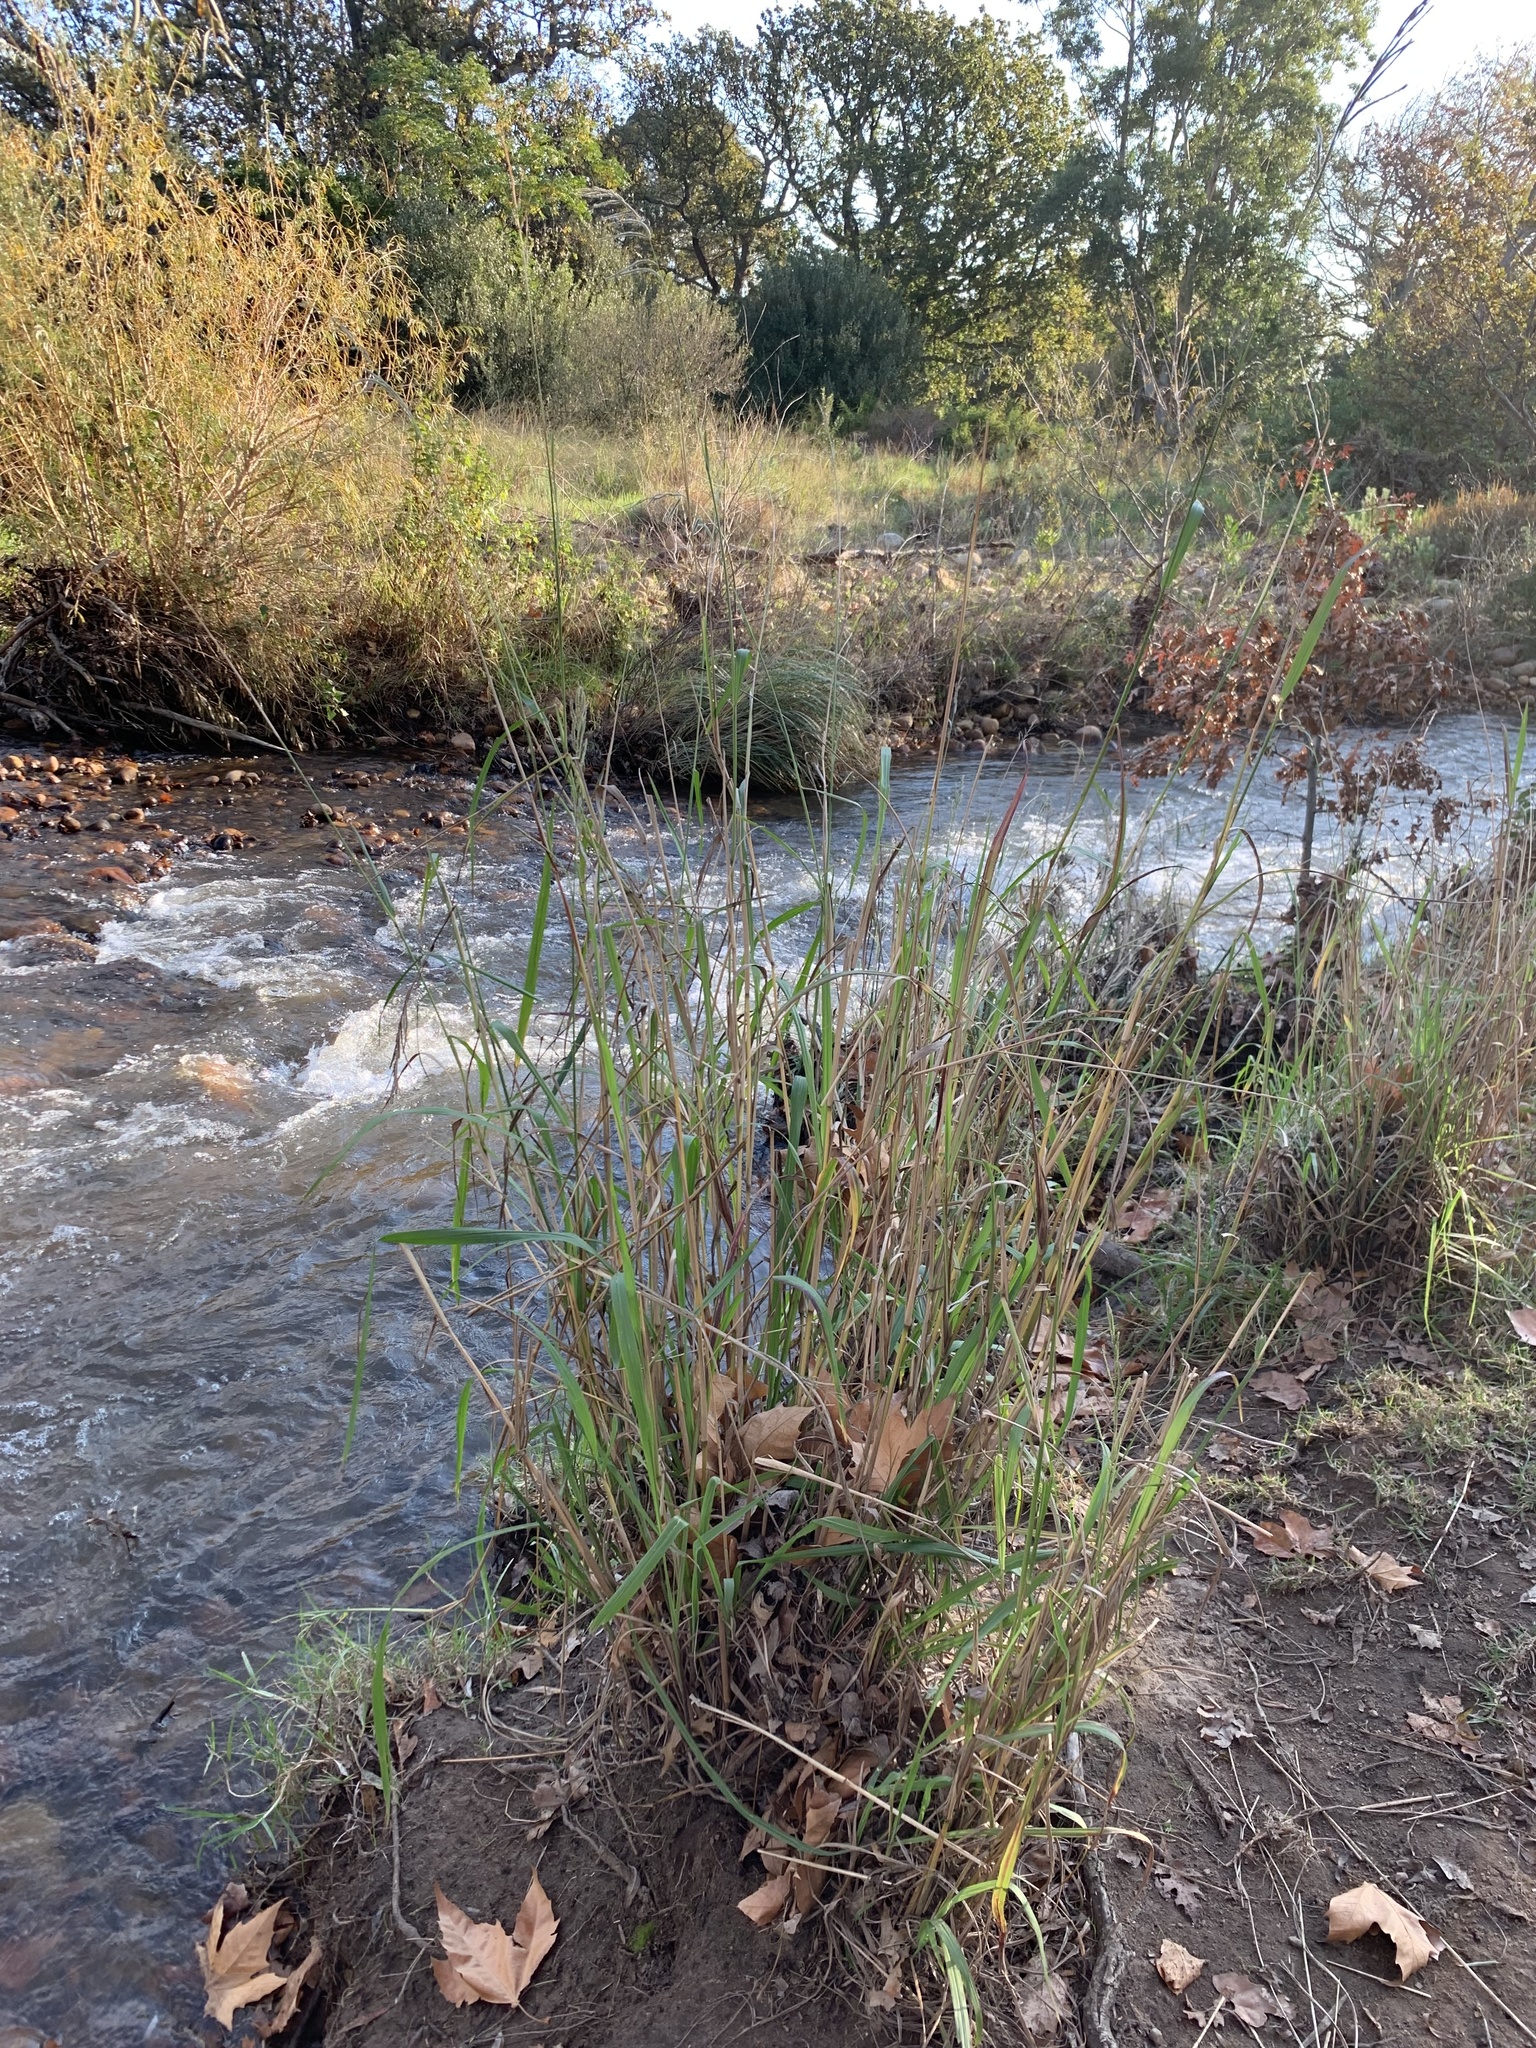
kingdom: Plantae
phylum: Tracheophyta
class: Liliopsida
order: Poales
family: Poaceae
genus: Paspalum
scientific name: Paspalum urvillei
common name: Vasey's grass
